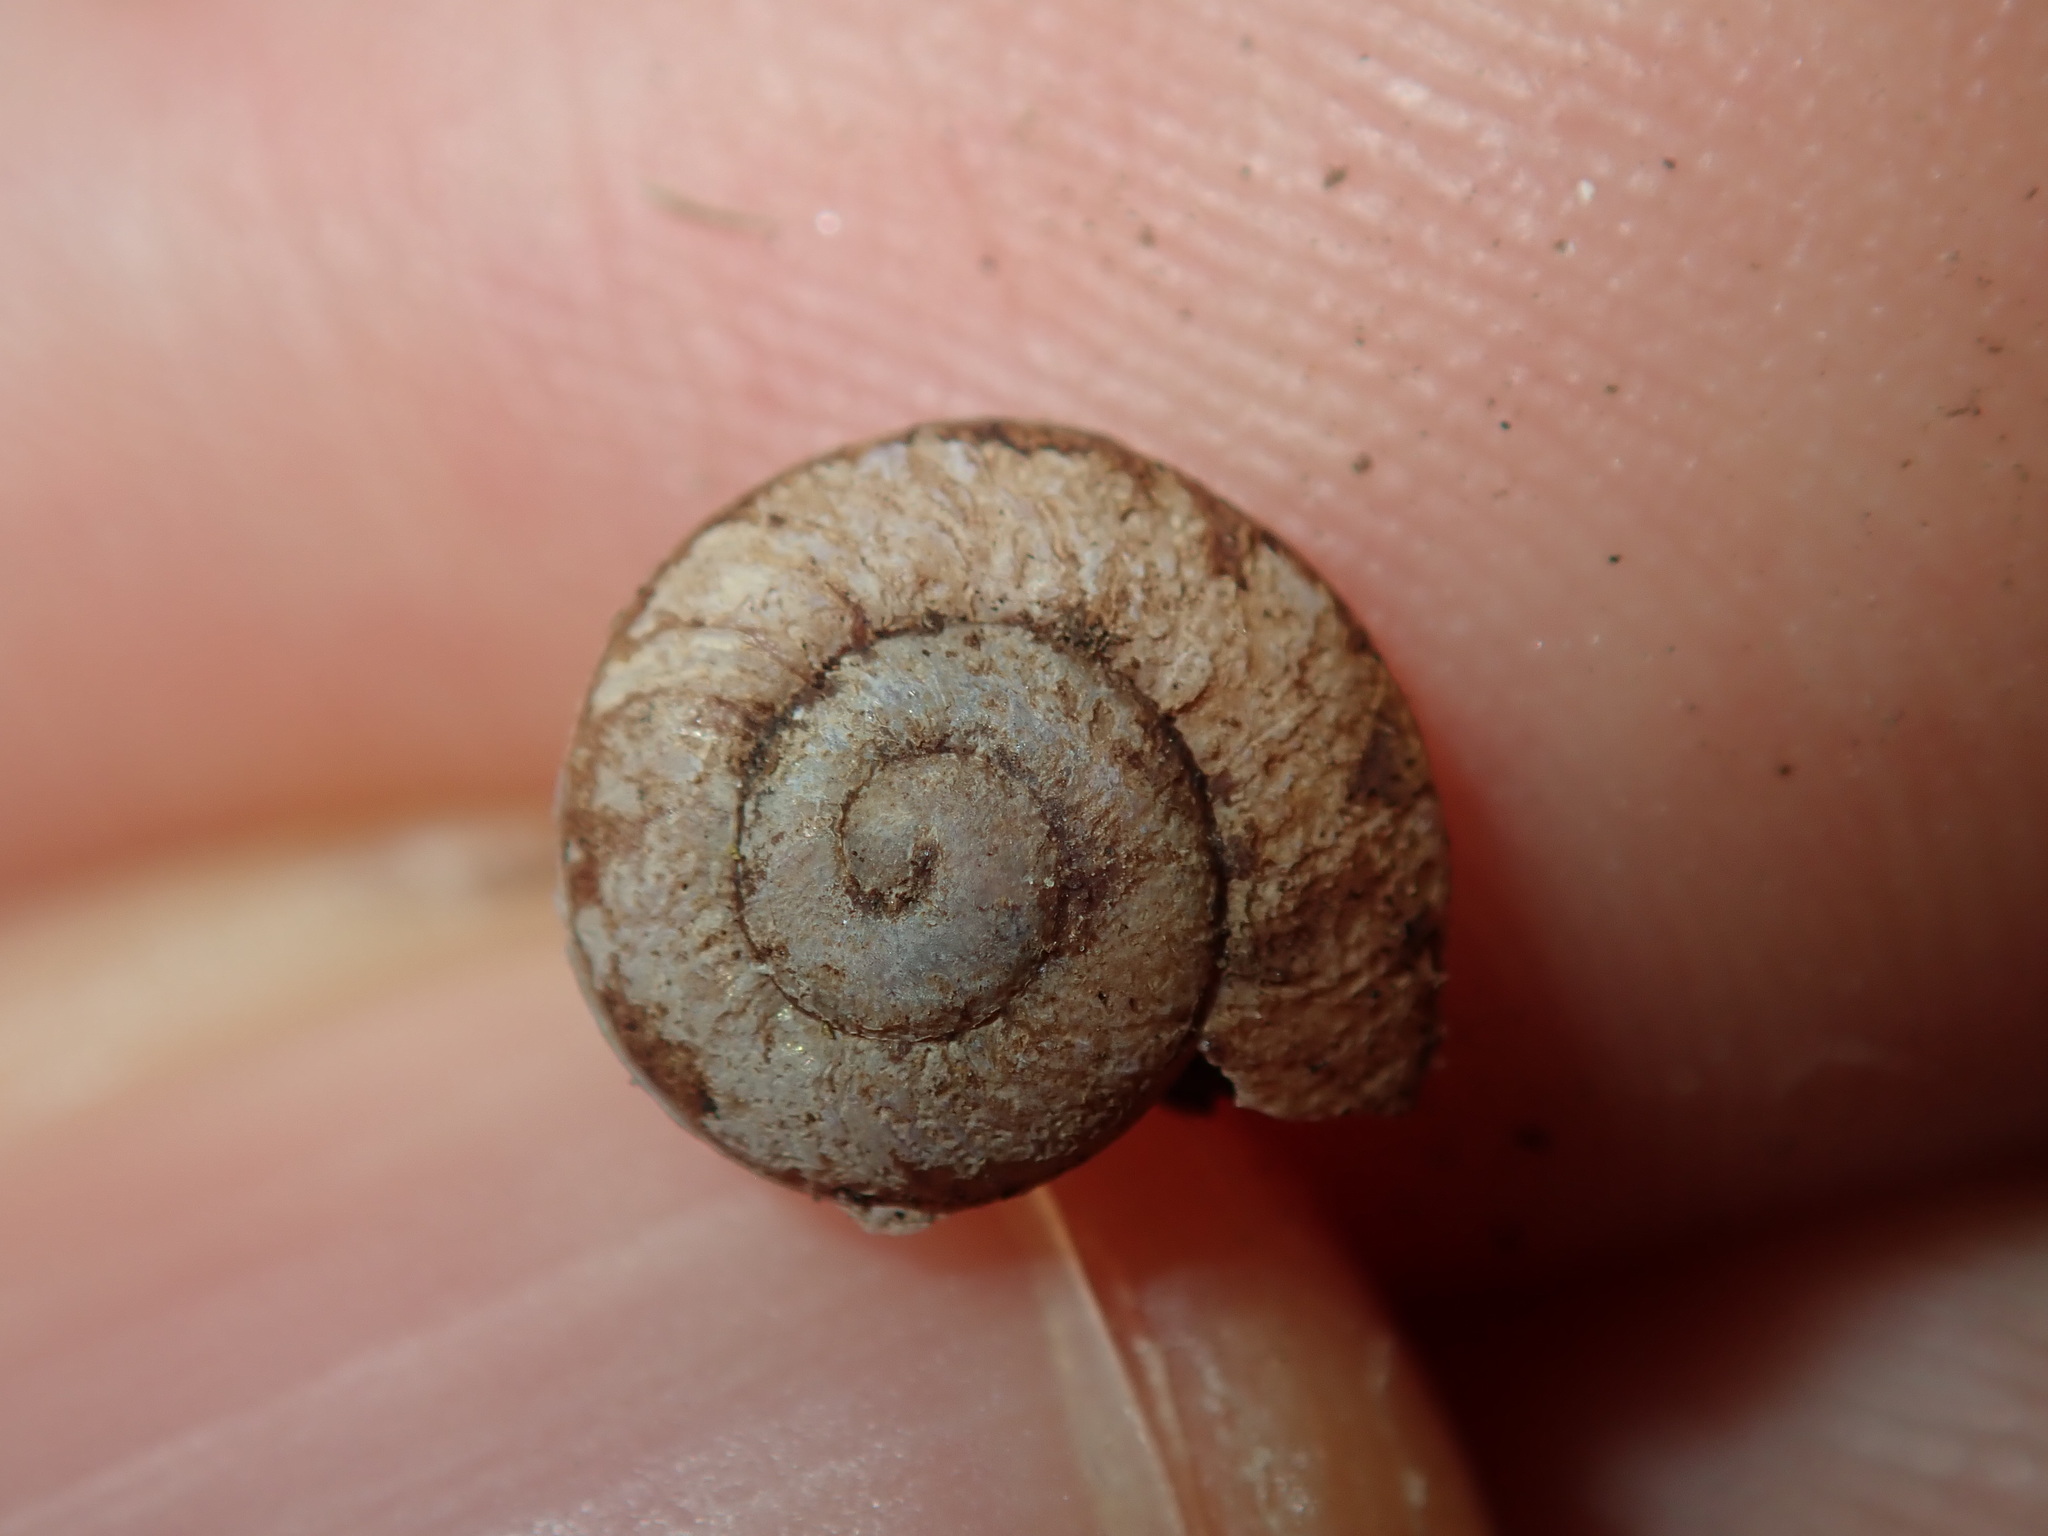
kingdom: Animalia
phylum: Mollusca
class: Gastropoda
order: Stylommatophora
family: Camaenidae
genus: Sauroconcha
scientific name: Sauroconcha sheai
